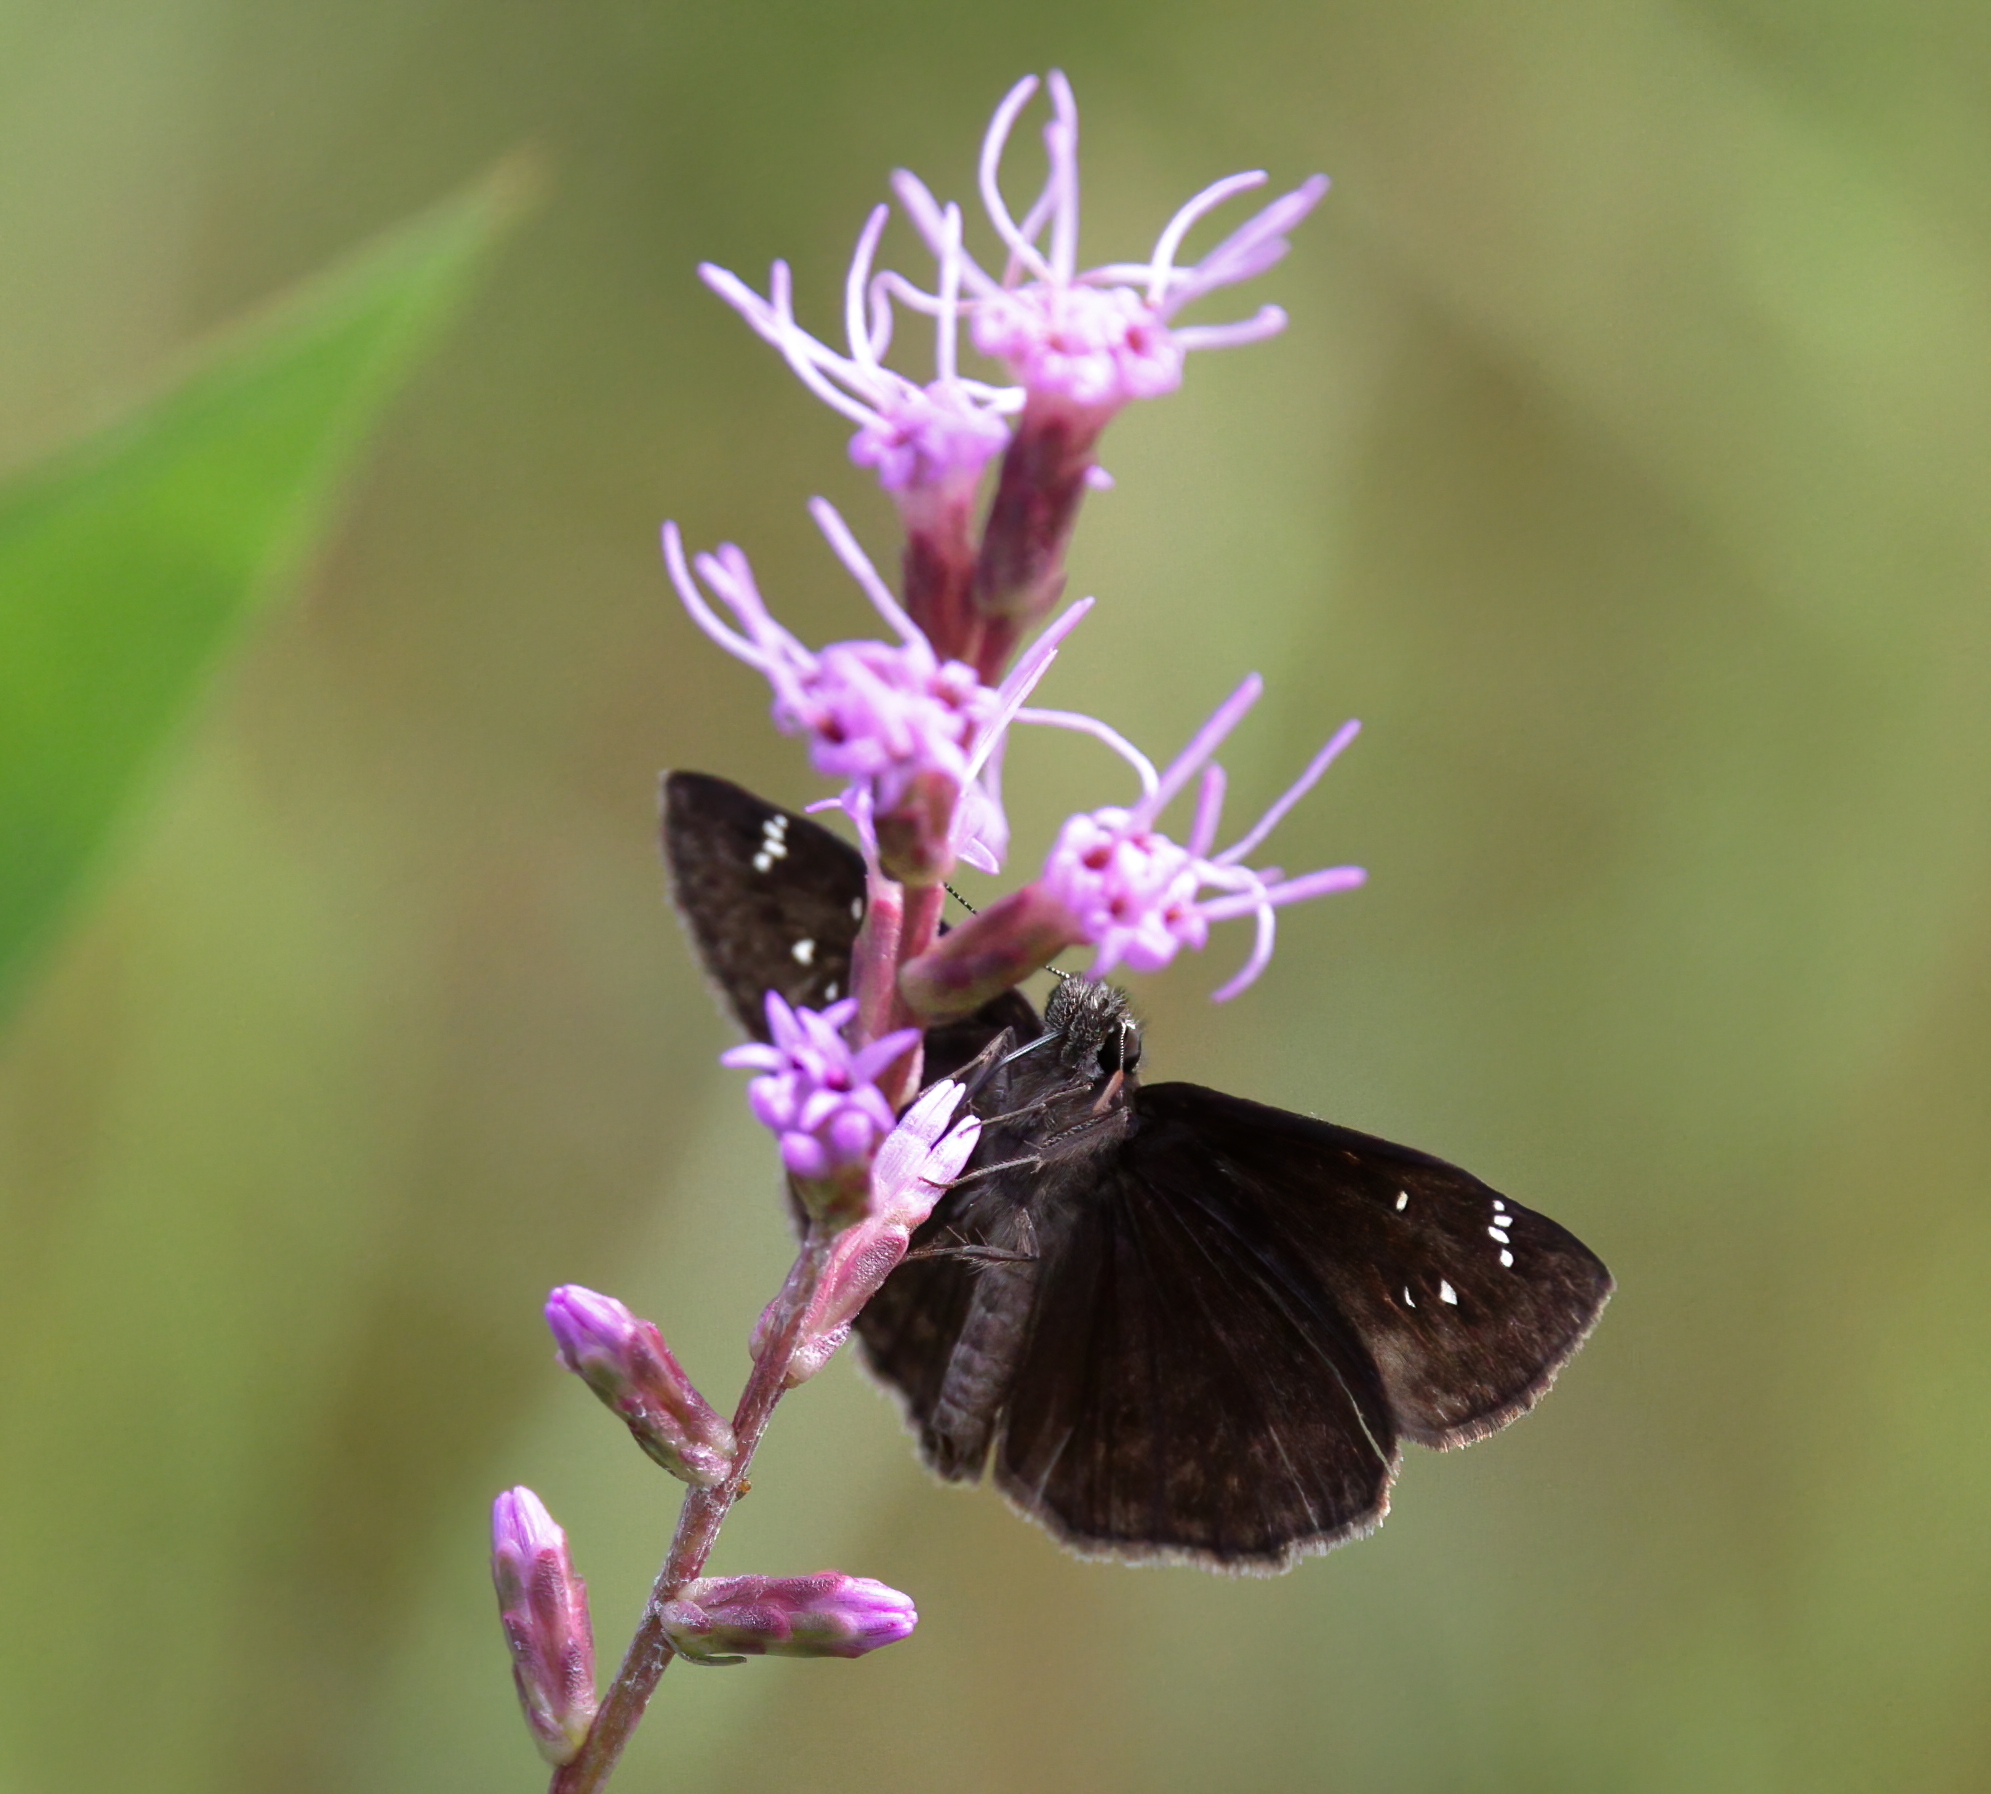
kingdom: Animalia
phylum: Arthropoda
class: Insecta
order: Lepidoptera
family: Hesperiidae
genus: Erynnis
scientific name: Erynnis zarucco
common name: Zarucco duskywing
